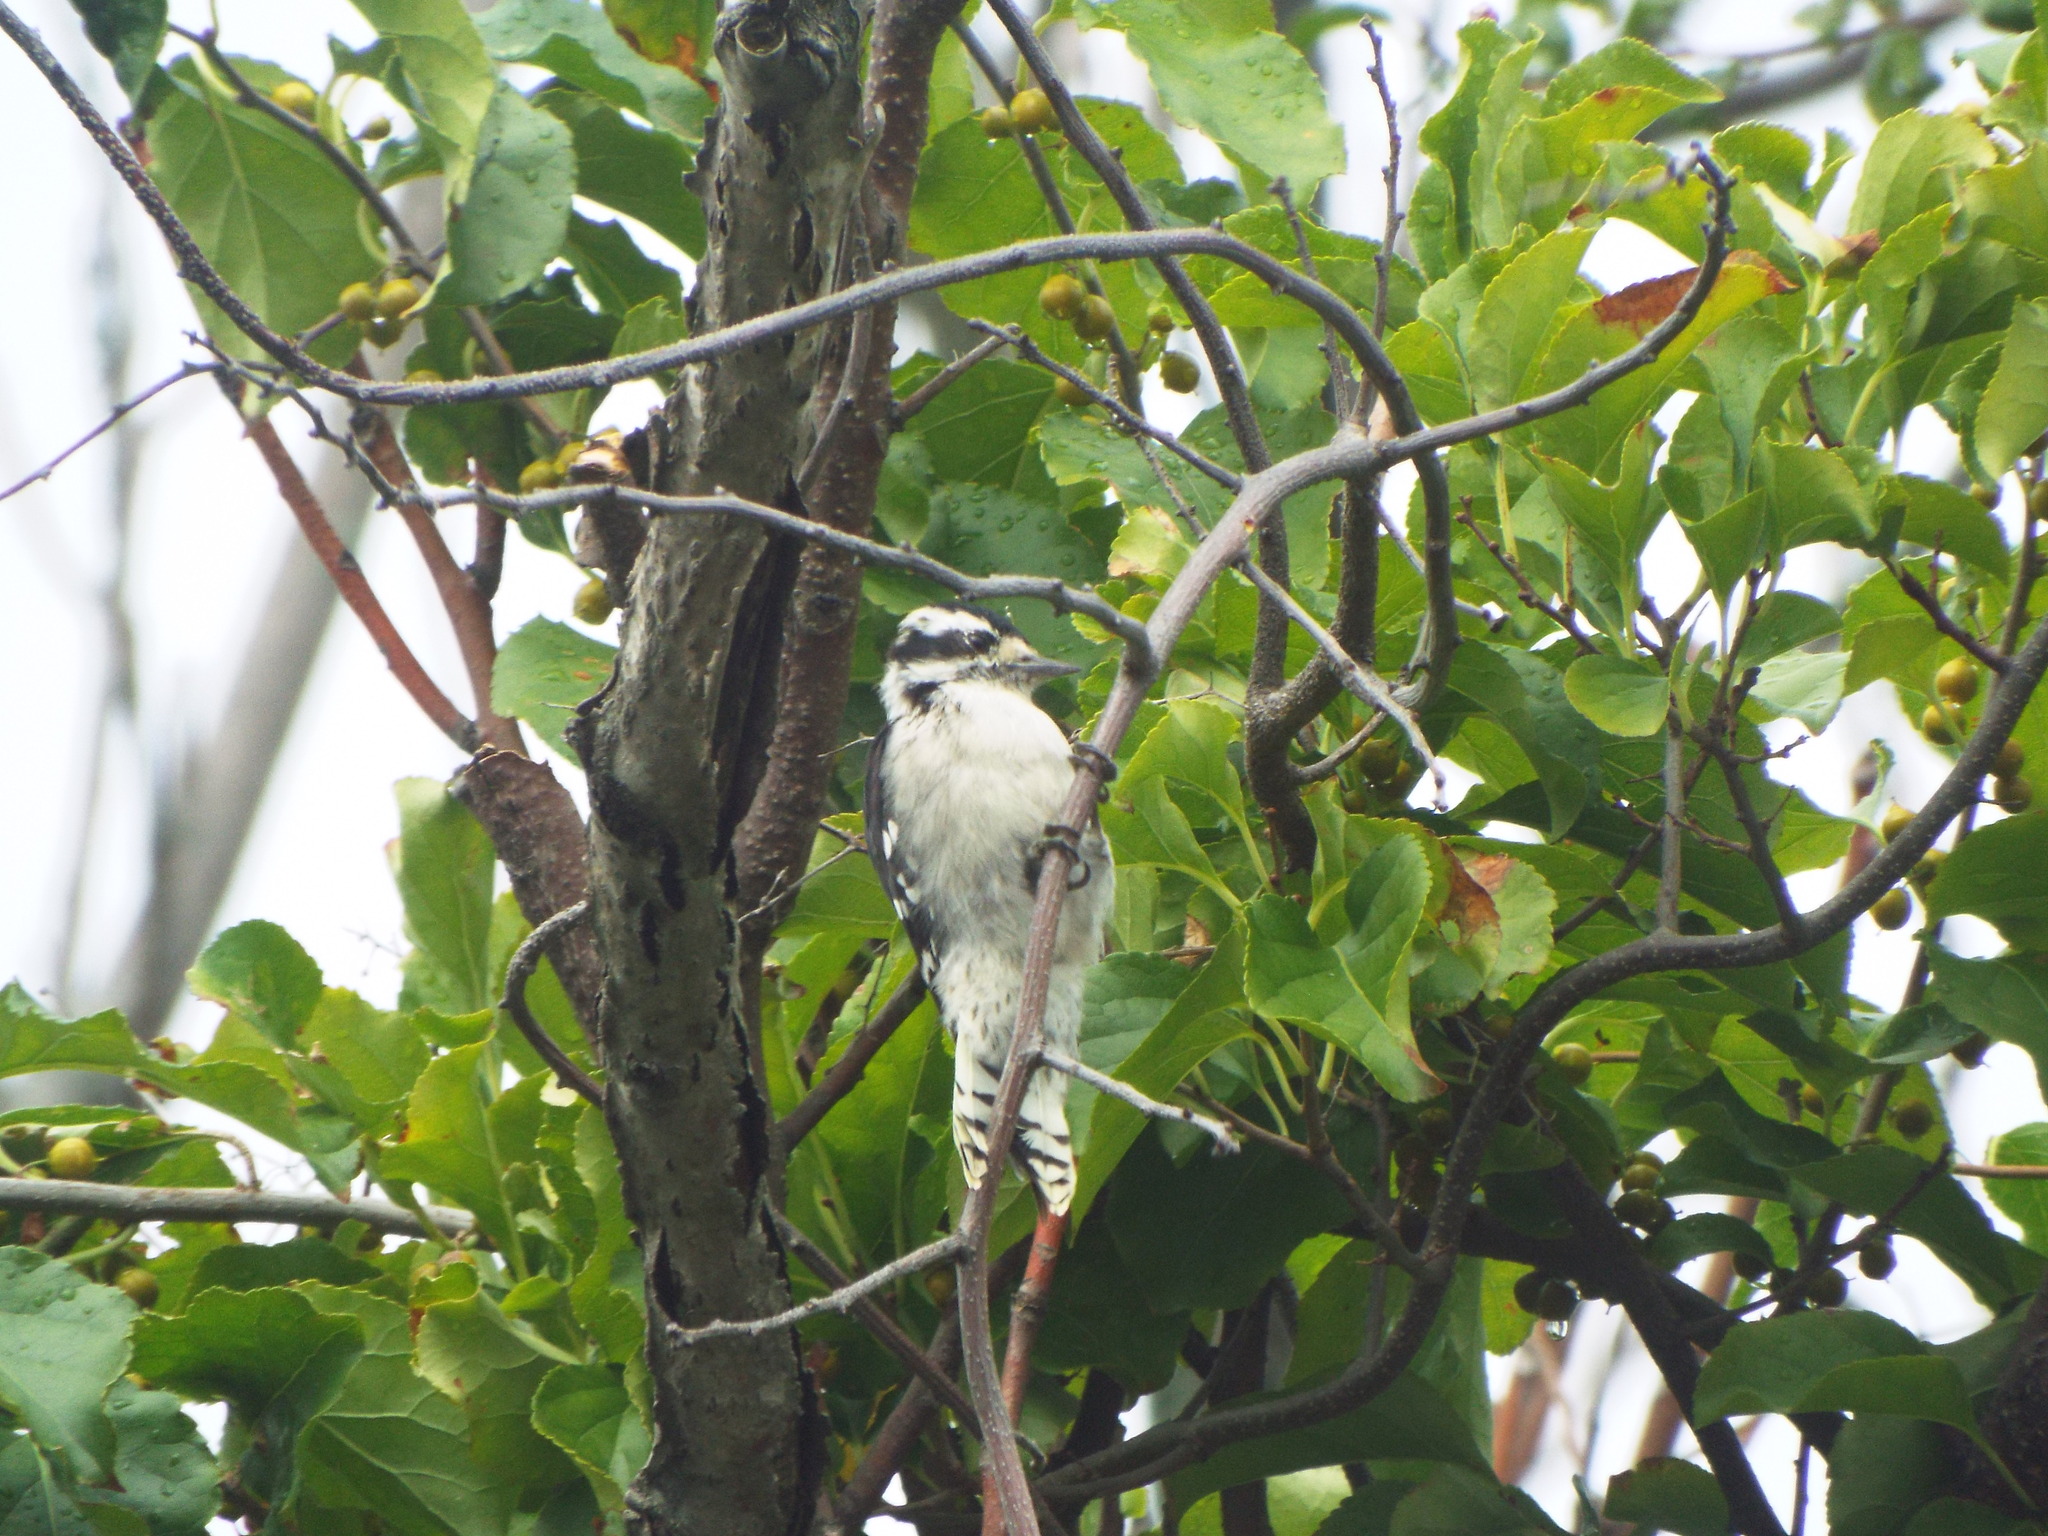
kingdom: Animalia
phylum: Chordata
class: Aves
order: Piciformes
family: Picidae
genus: Dryobates
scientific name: Dryobates pubescens
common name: Downy woodpecker
